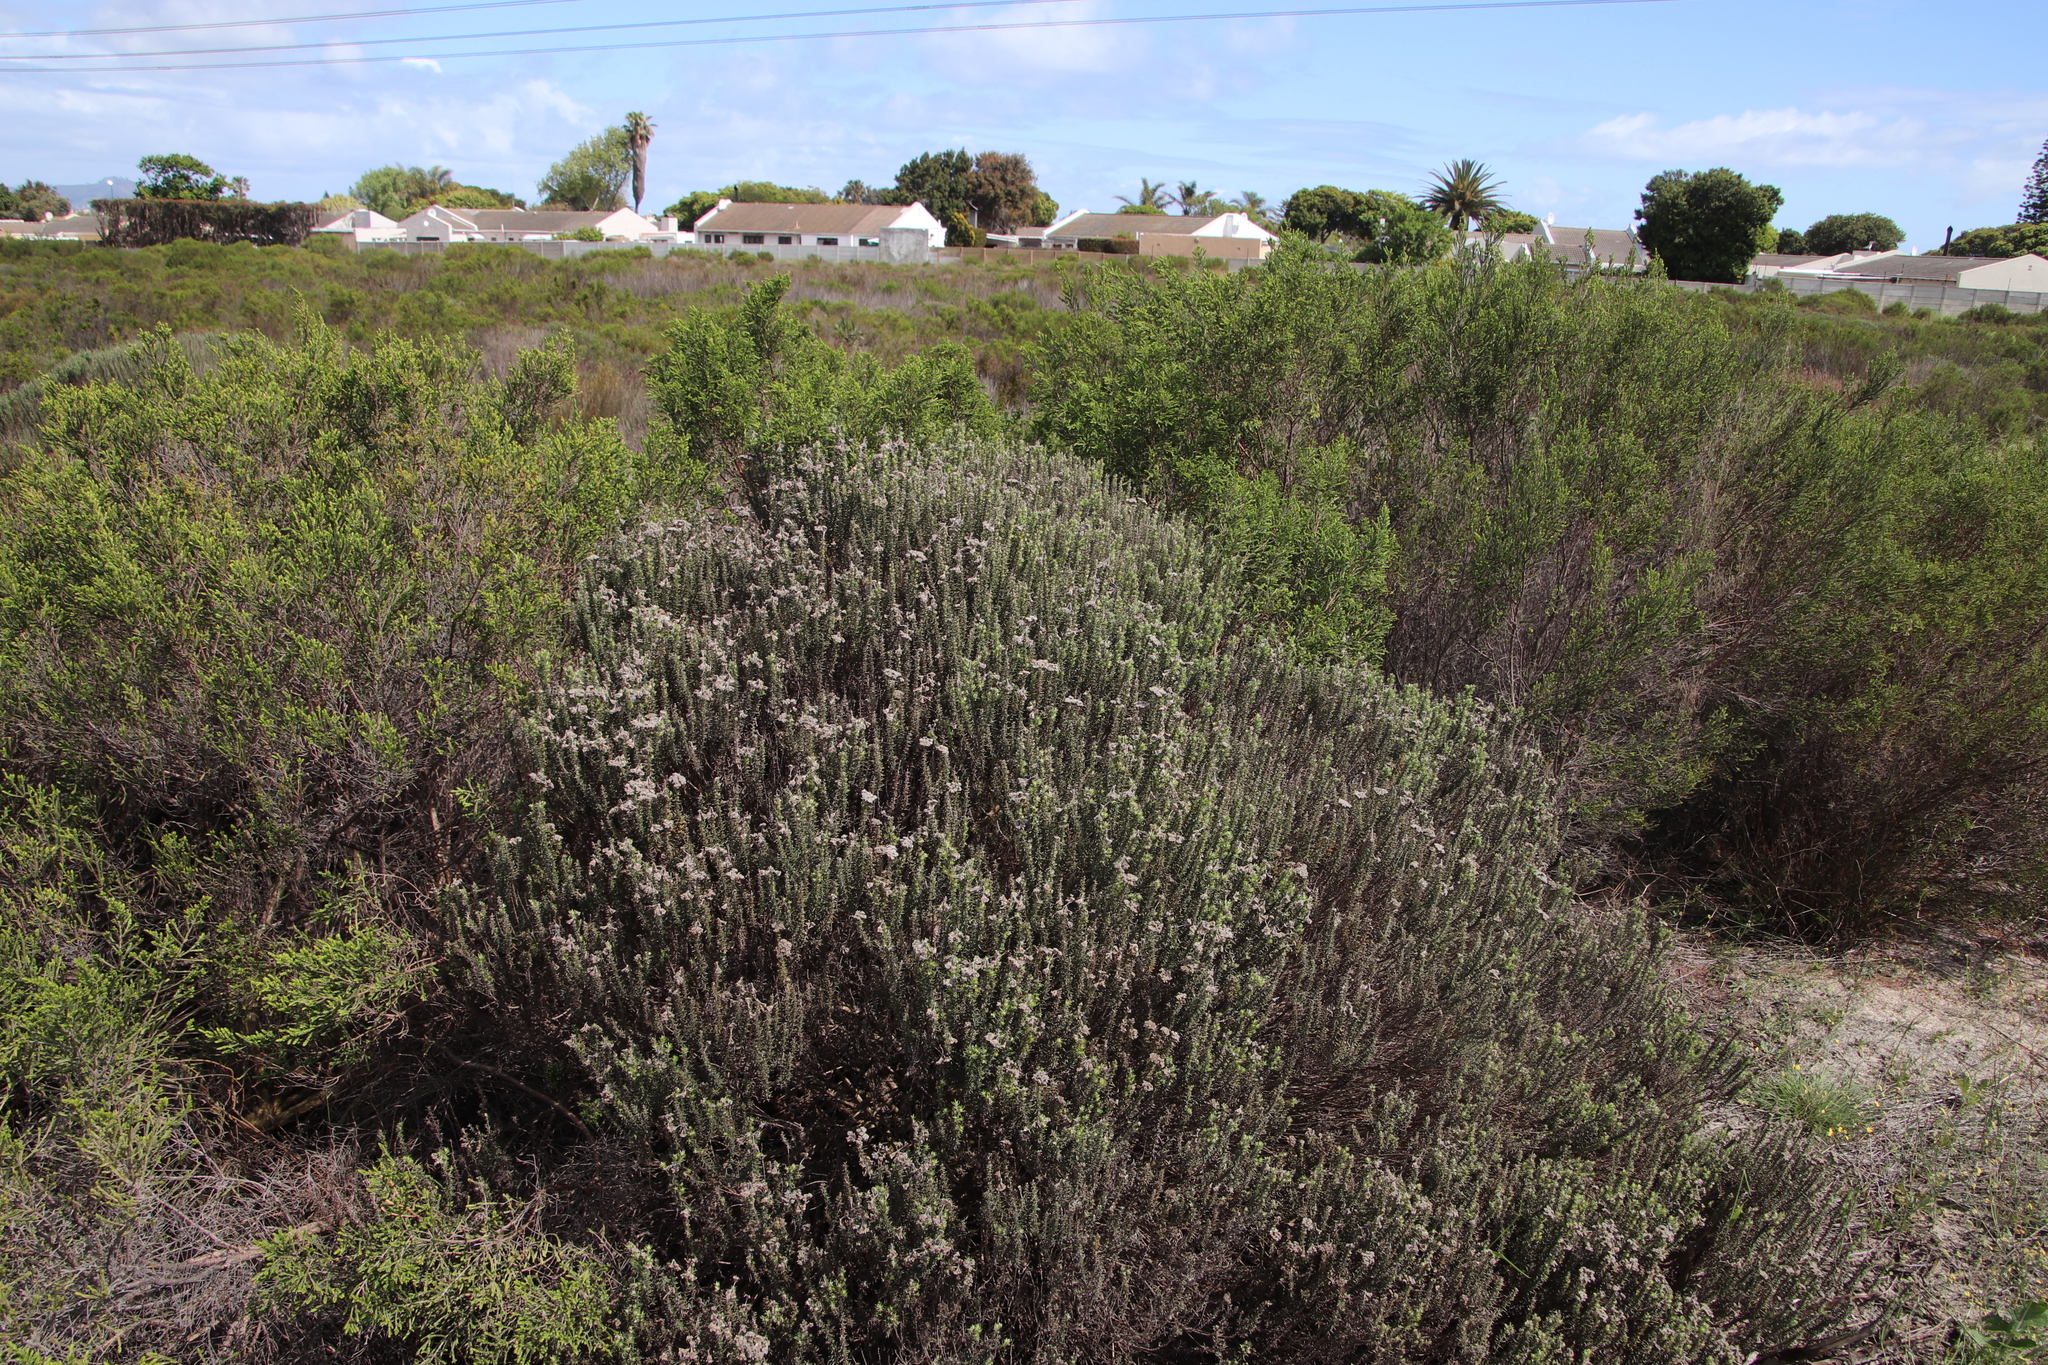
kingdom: Plantae
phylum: Tracheophyta
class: Magnoliopsida
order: Asterales
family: Asteraceae
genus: Metalasia
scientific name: Metalasia densa
